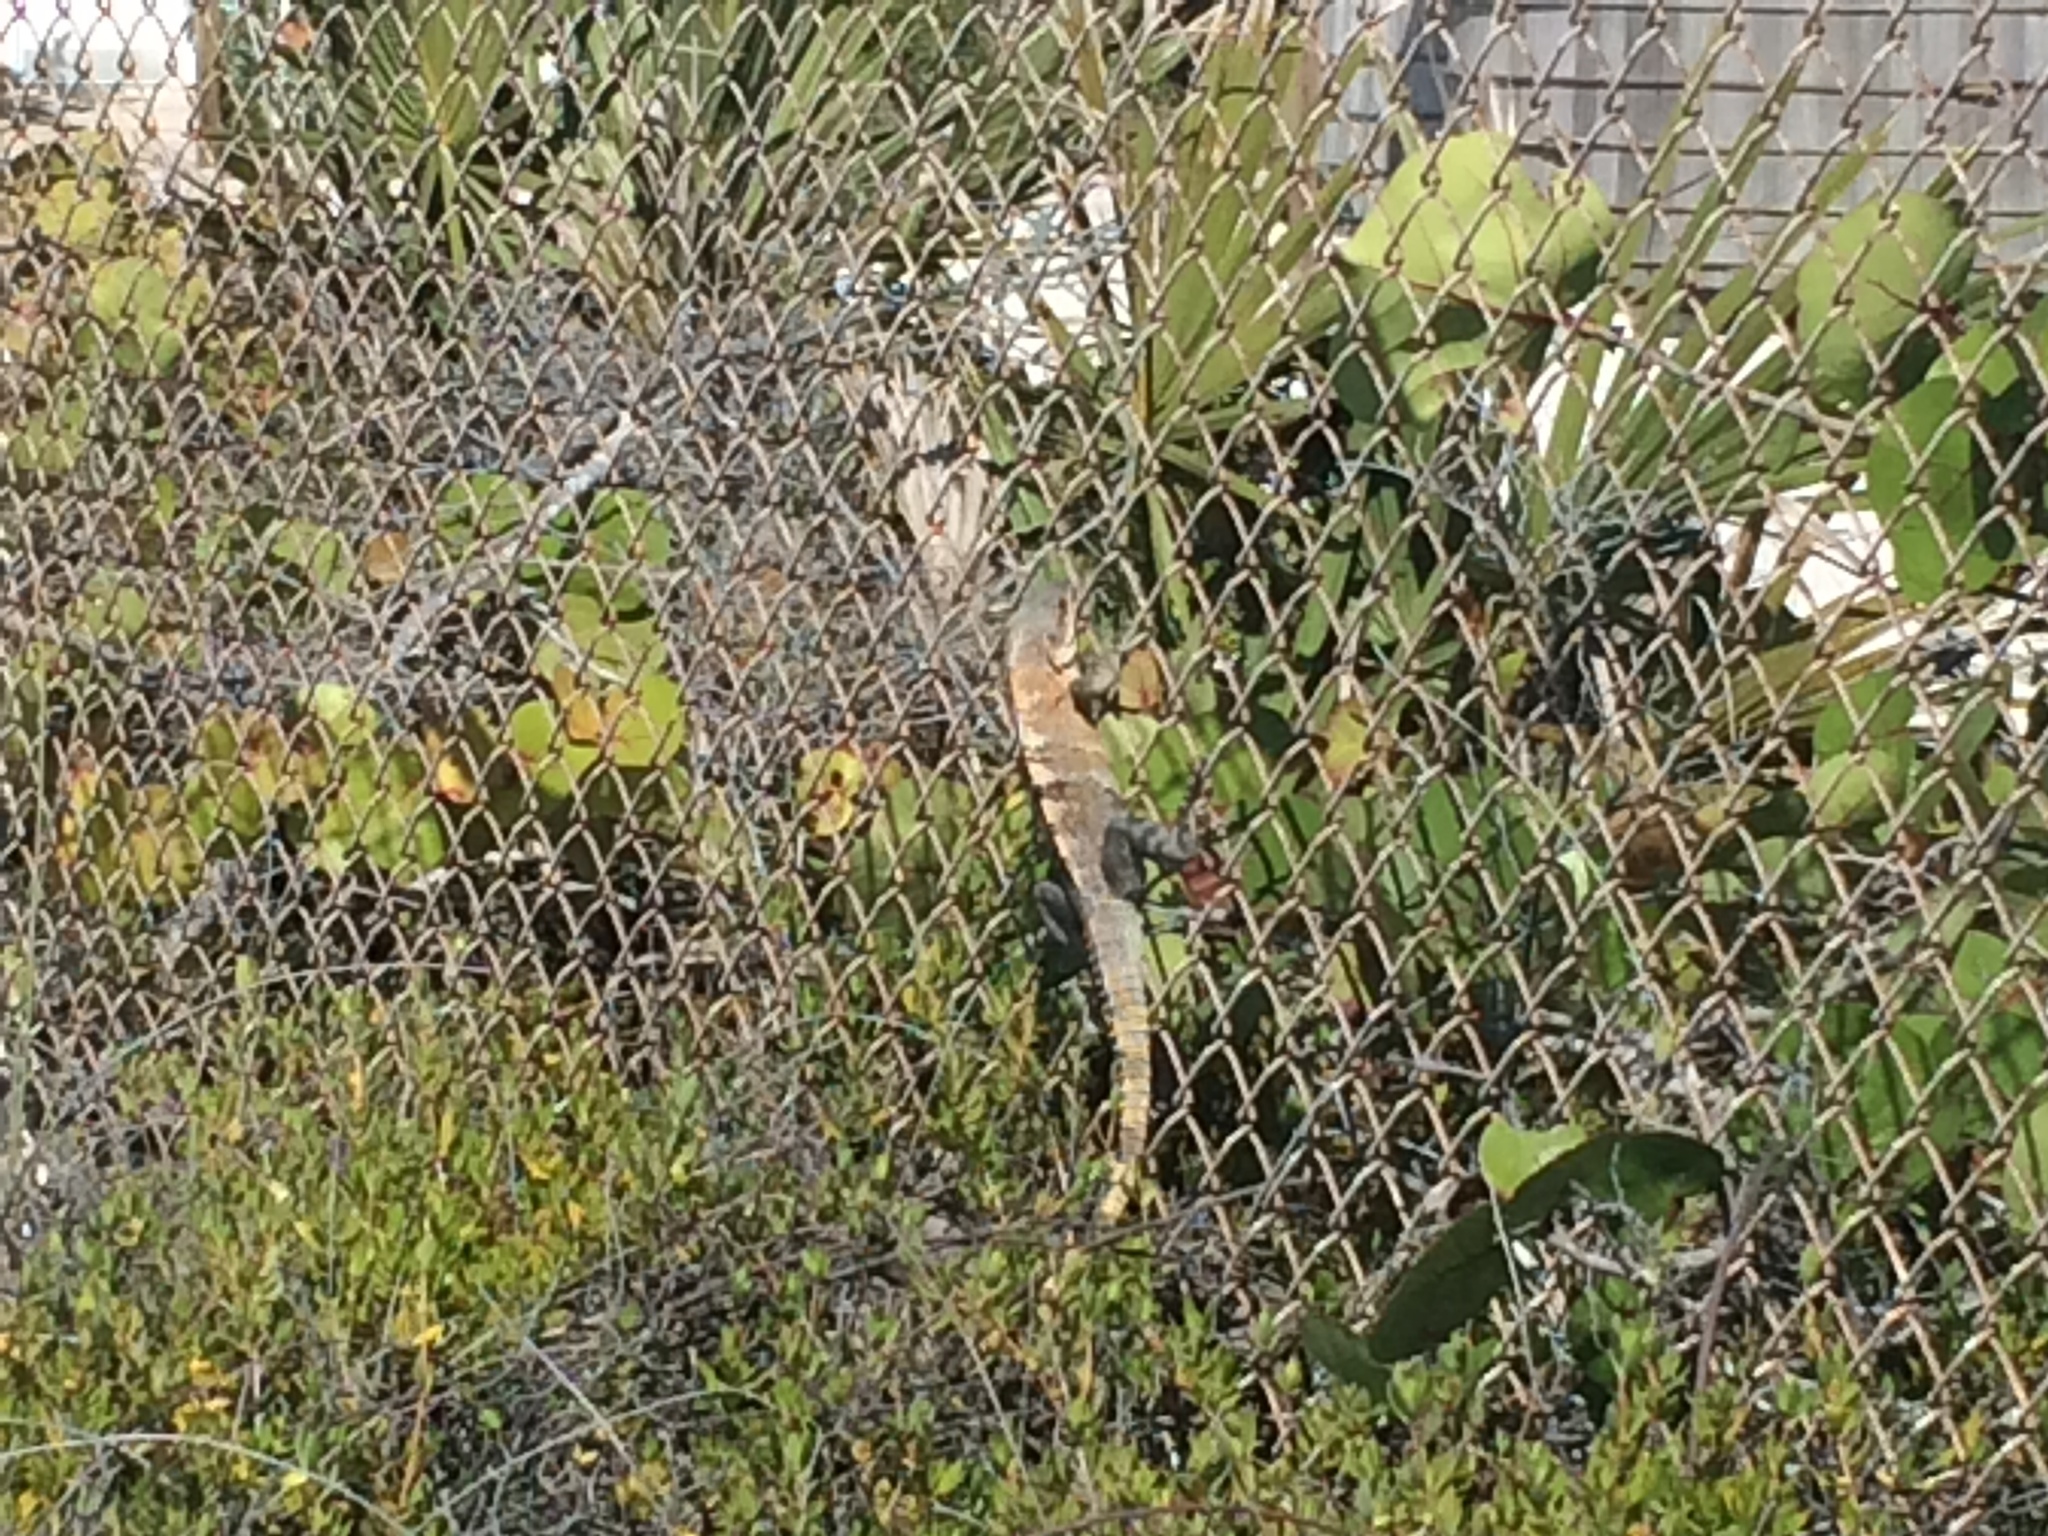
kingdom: Animalia
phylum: Chordata
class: Squamata
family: Iguanidae
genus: Ctenosaura
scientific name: Ctenosaura similis
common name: Black spiny-tailed iguana
